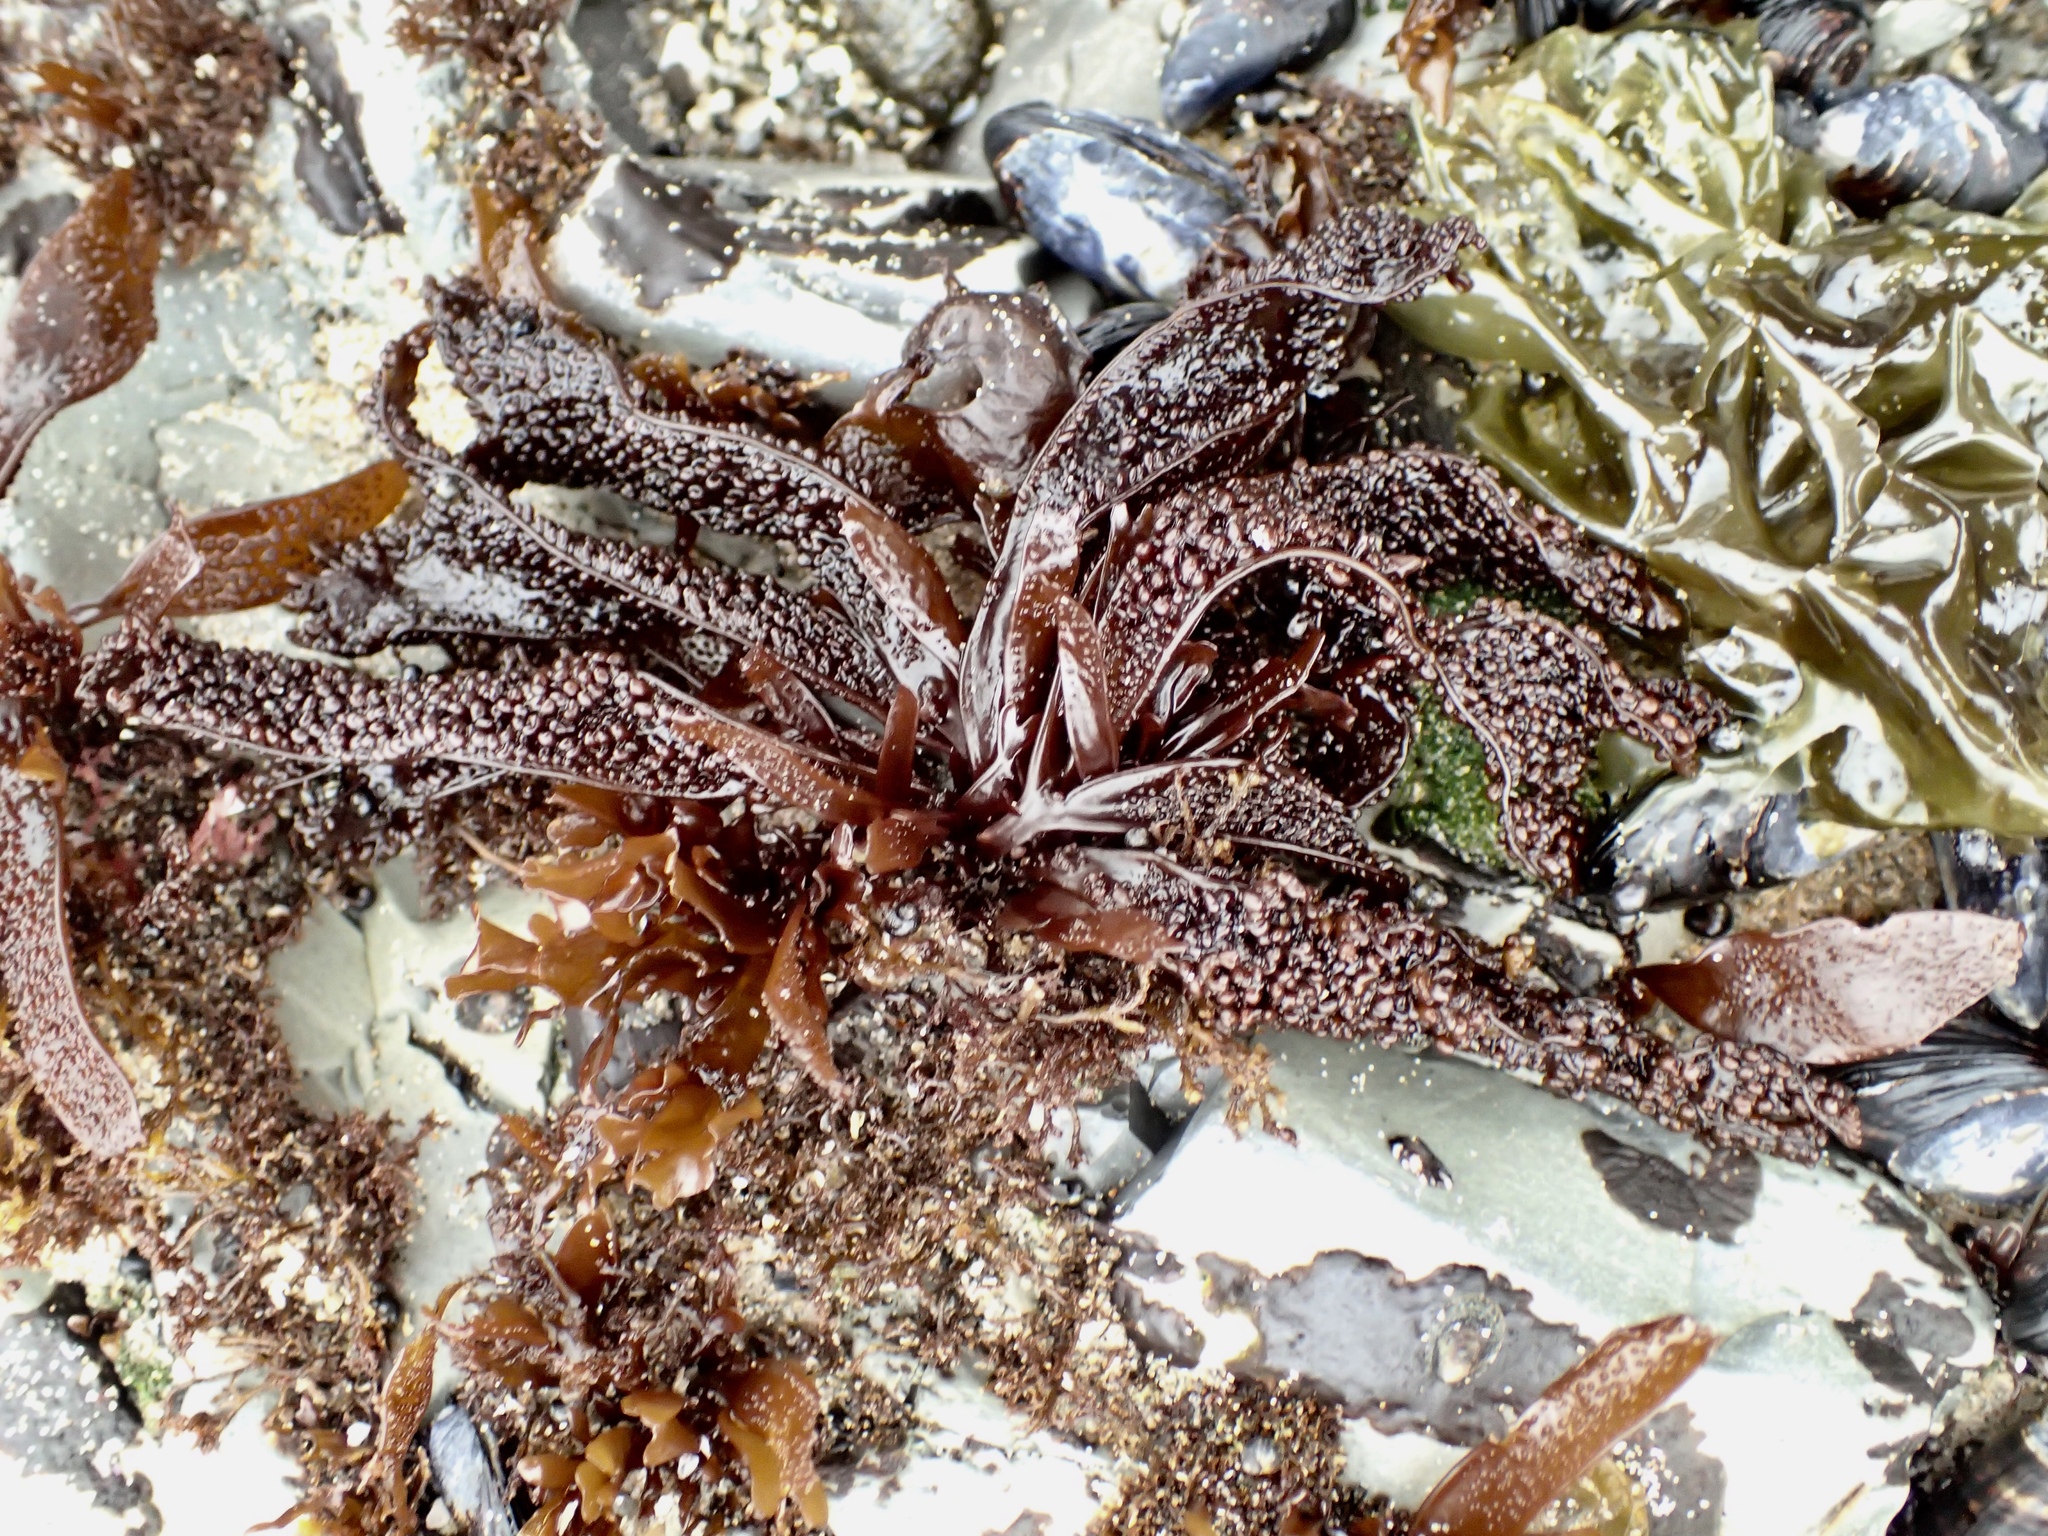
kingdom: Plantae
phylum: Rhodophyta
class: Florideophyceae
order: Gigartinales
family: Phyllophoraceae
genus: Mastocarpus
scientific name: Mastocarpus papillatus
